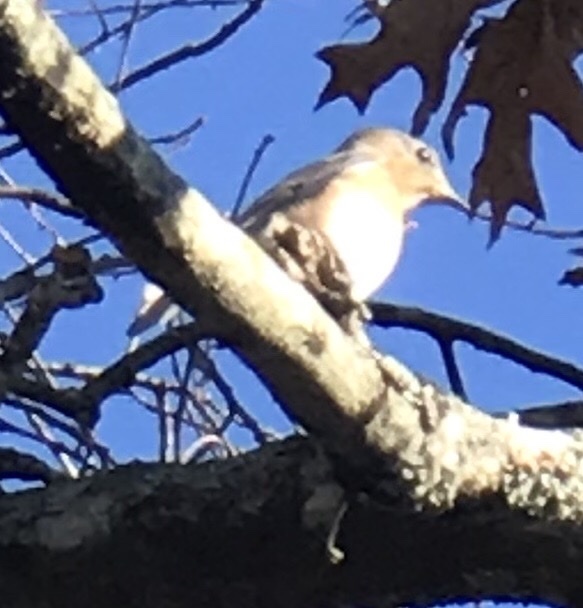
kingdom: Animalia
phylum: Chordata
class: Aves
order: Passeriformes
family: Turdidae
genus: Sialia
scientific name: Sialia sialis
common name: Eastern bluebird
